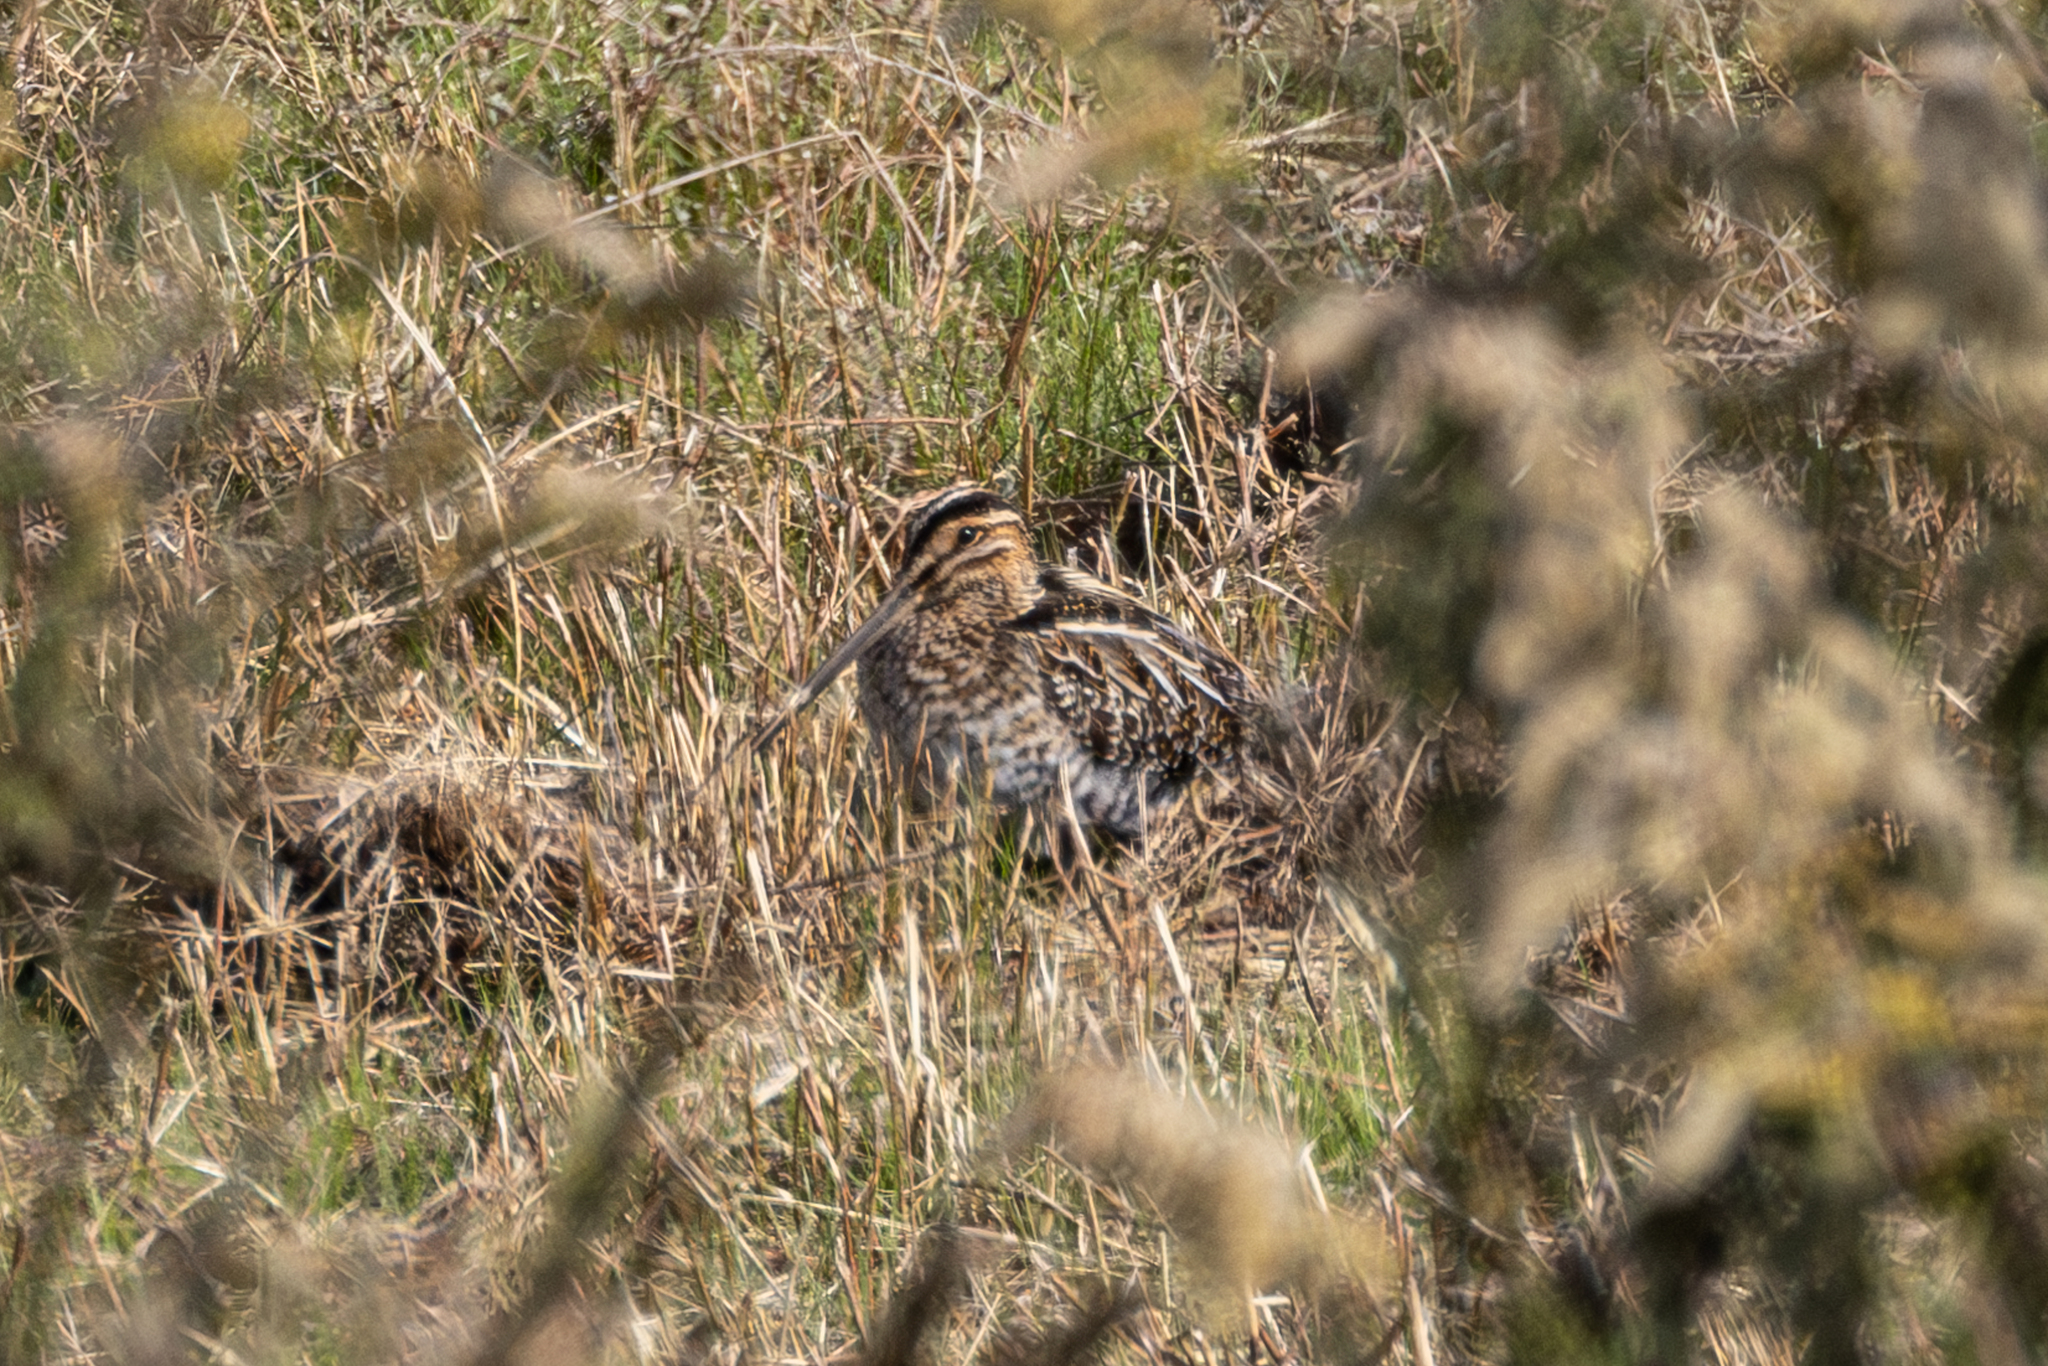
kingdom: Animalia
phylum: Chordata
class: Aves
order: Charadriiformes
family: Scolopacidae
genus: Gallinago
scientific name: Gallinago delicata
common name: Wilson's snipe
